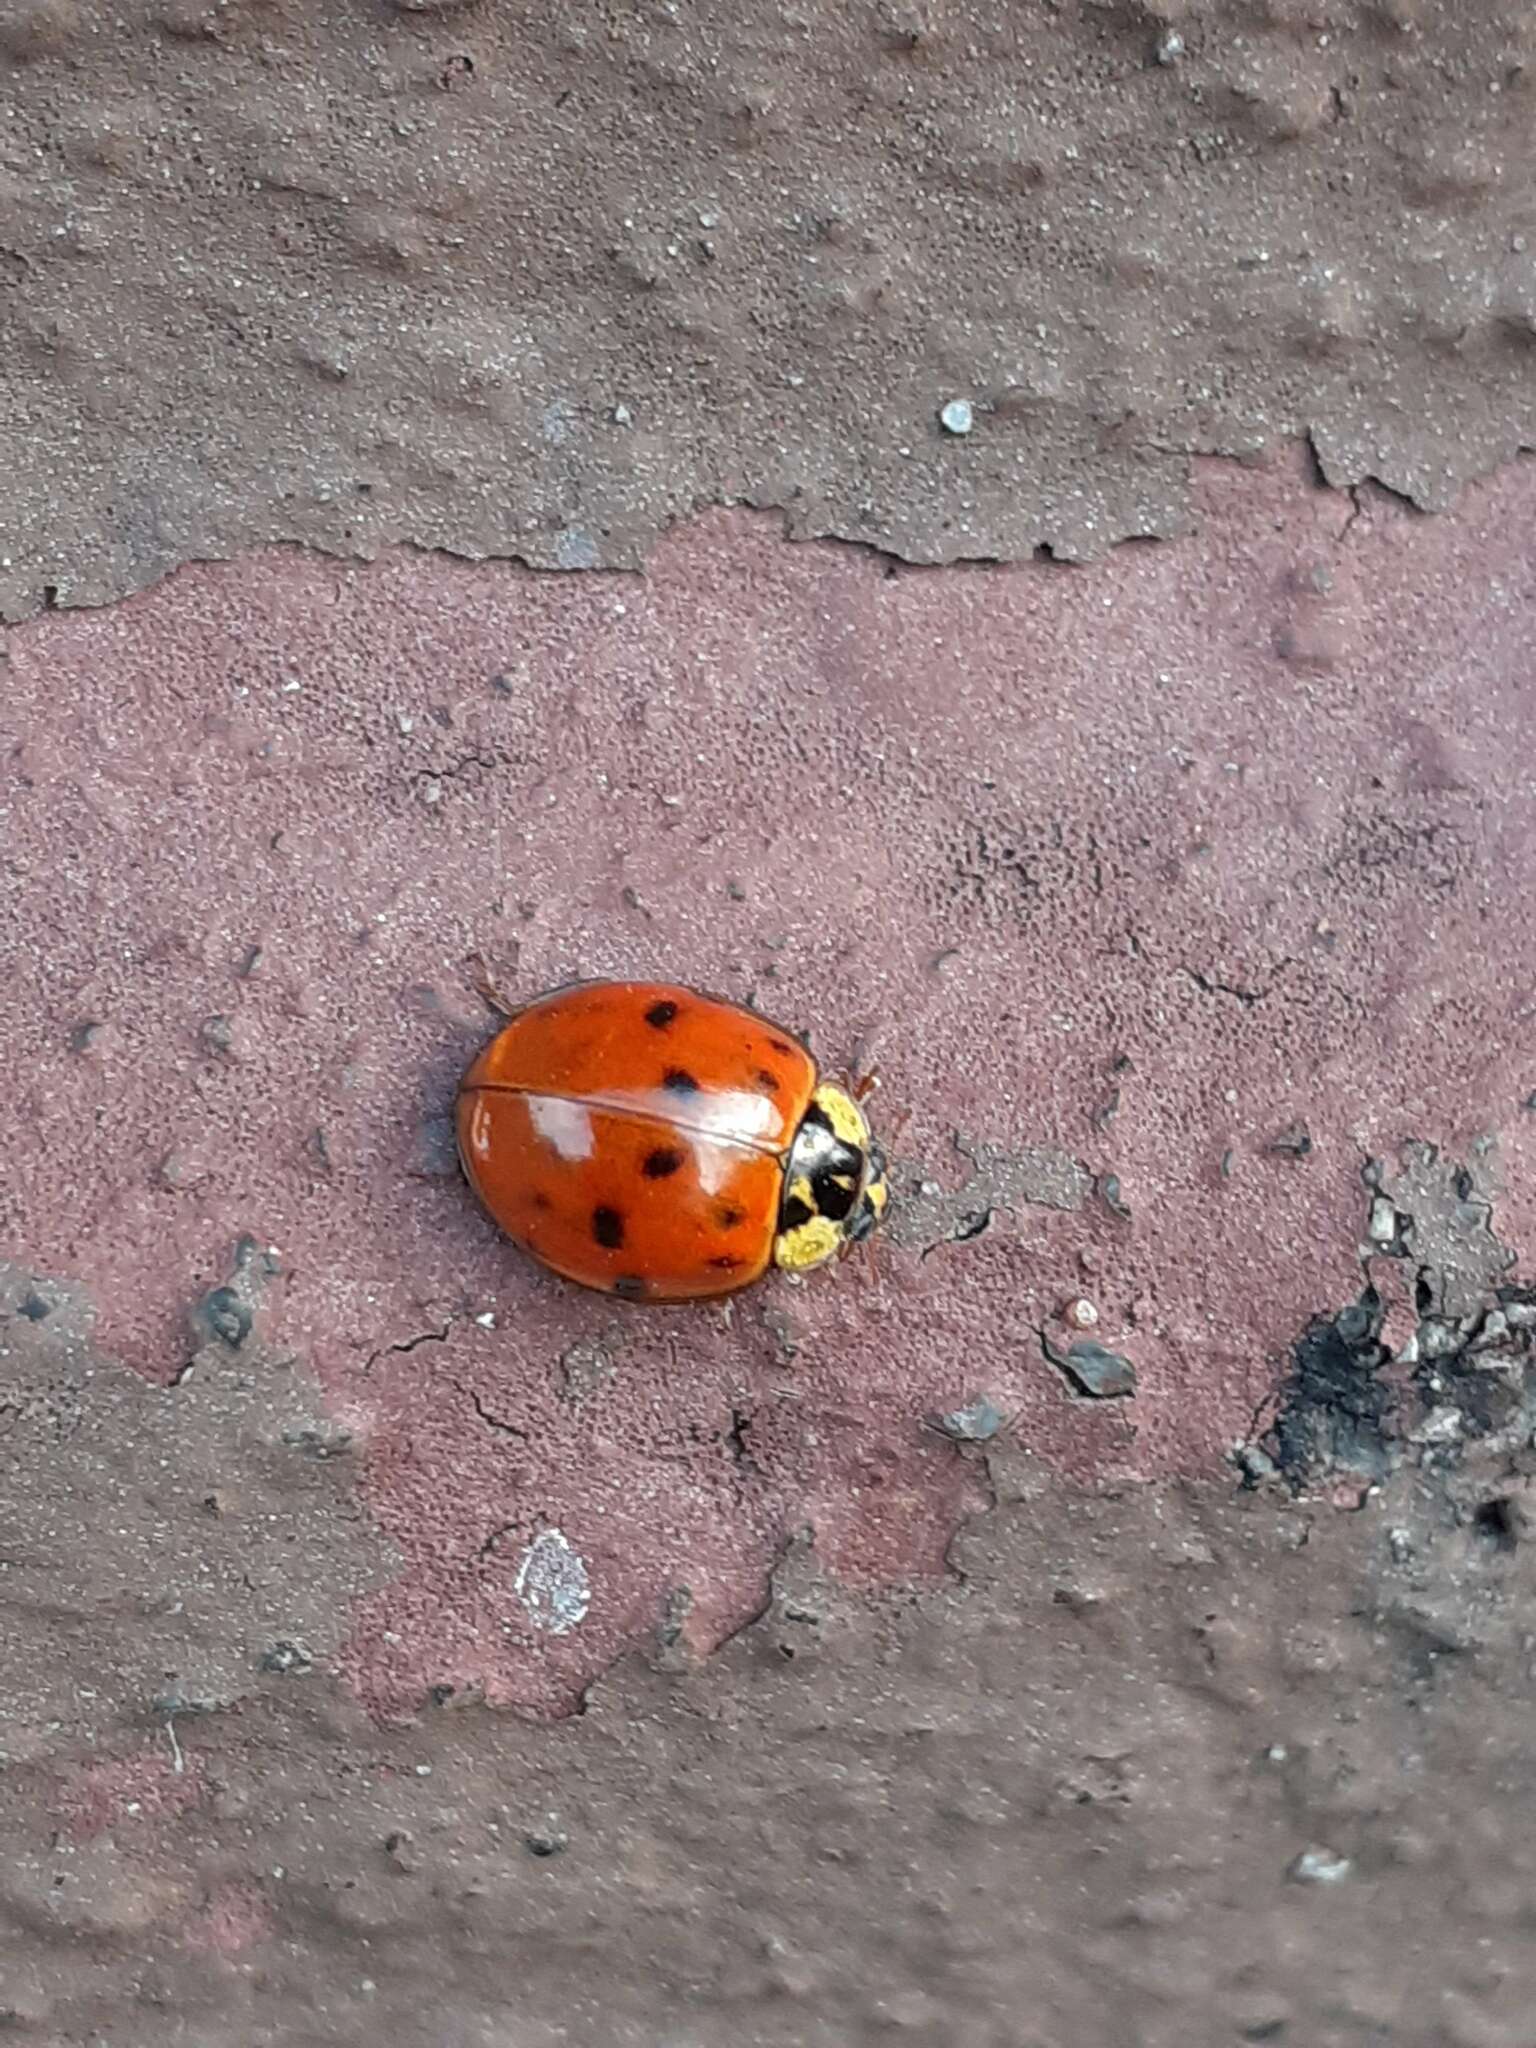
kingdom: Animalia
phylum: Arthropoda
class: Insecta
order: Coleoptera
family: Coccinellidae
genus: Harmonia
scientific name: Harmonia axyridis
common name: Harlequin ladybird
